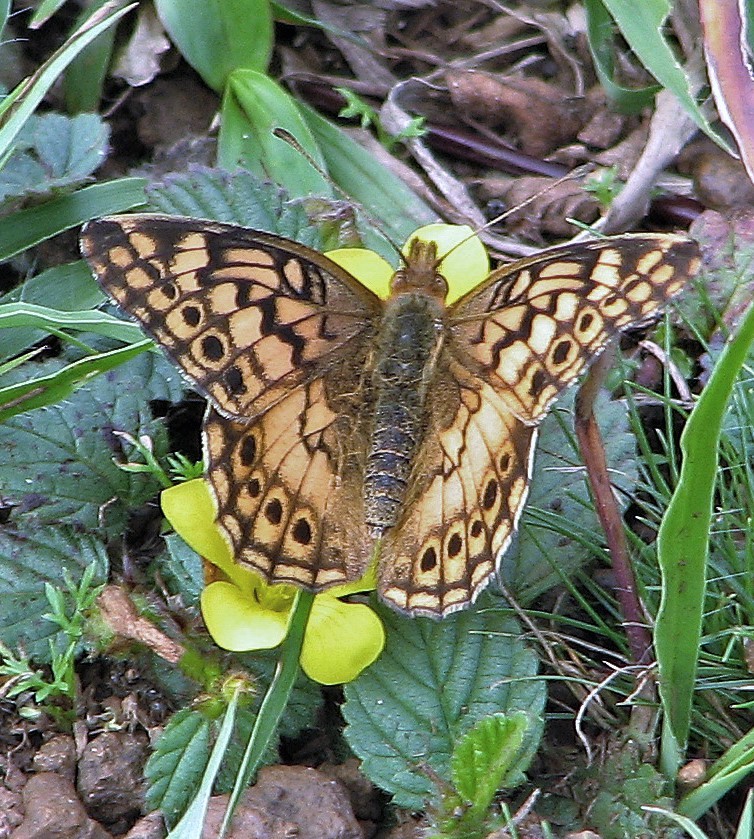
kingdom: Animalia
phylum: Arthropoda
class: Insecta
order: Lepidoptera
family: Nymphalidae
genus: Euptoieta
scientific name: Euptoieta hortensia
